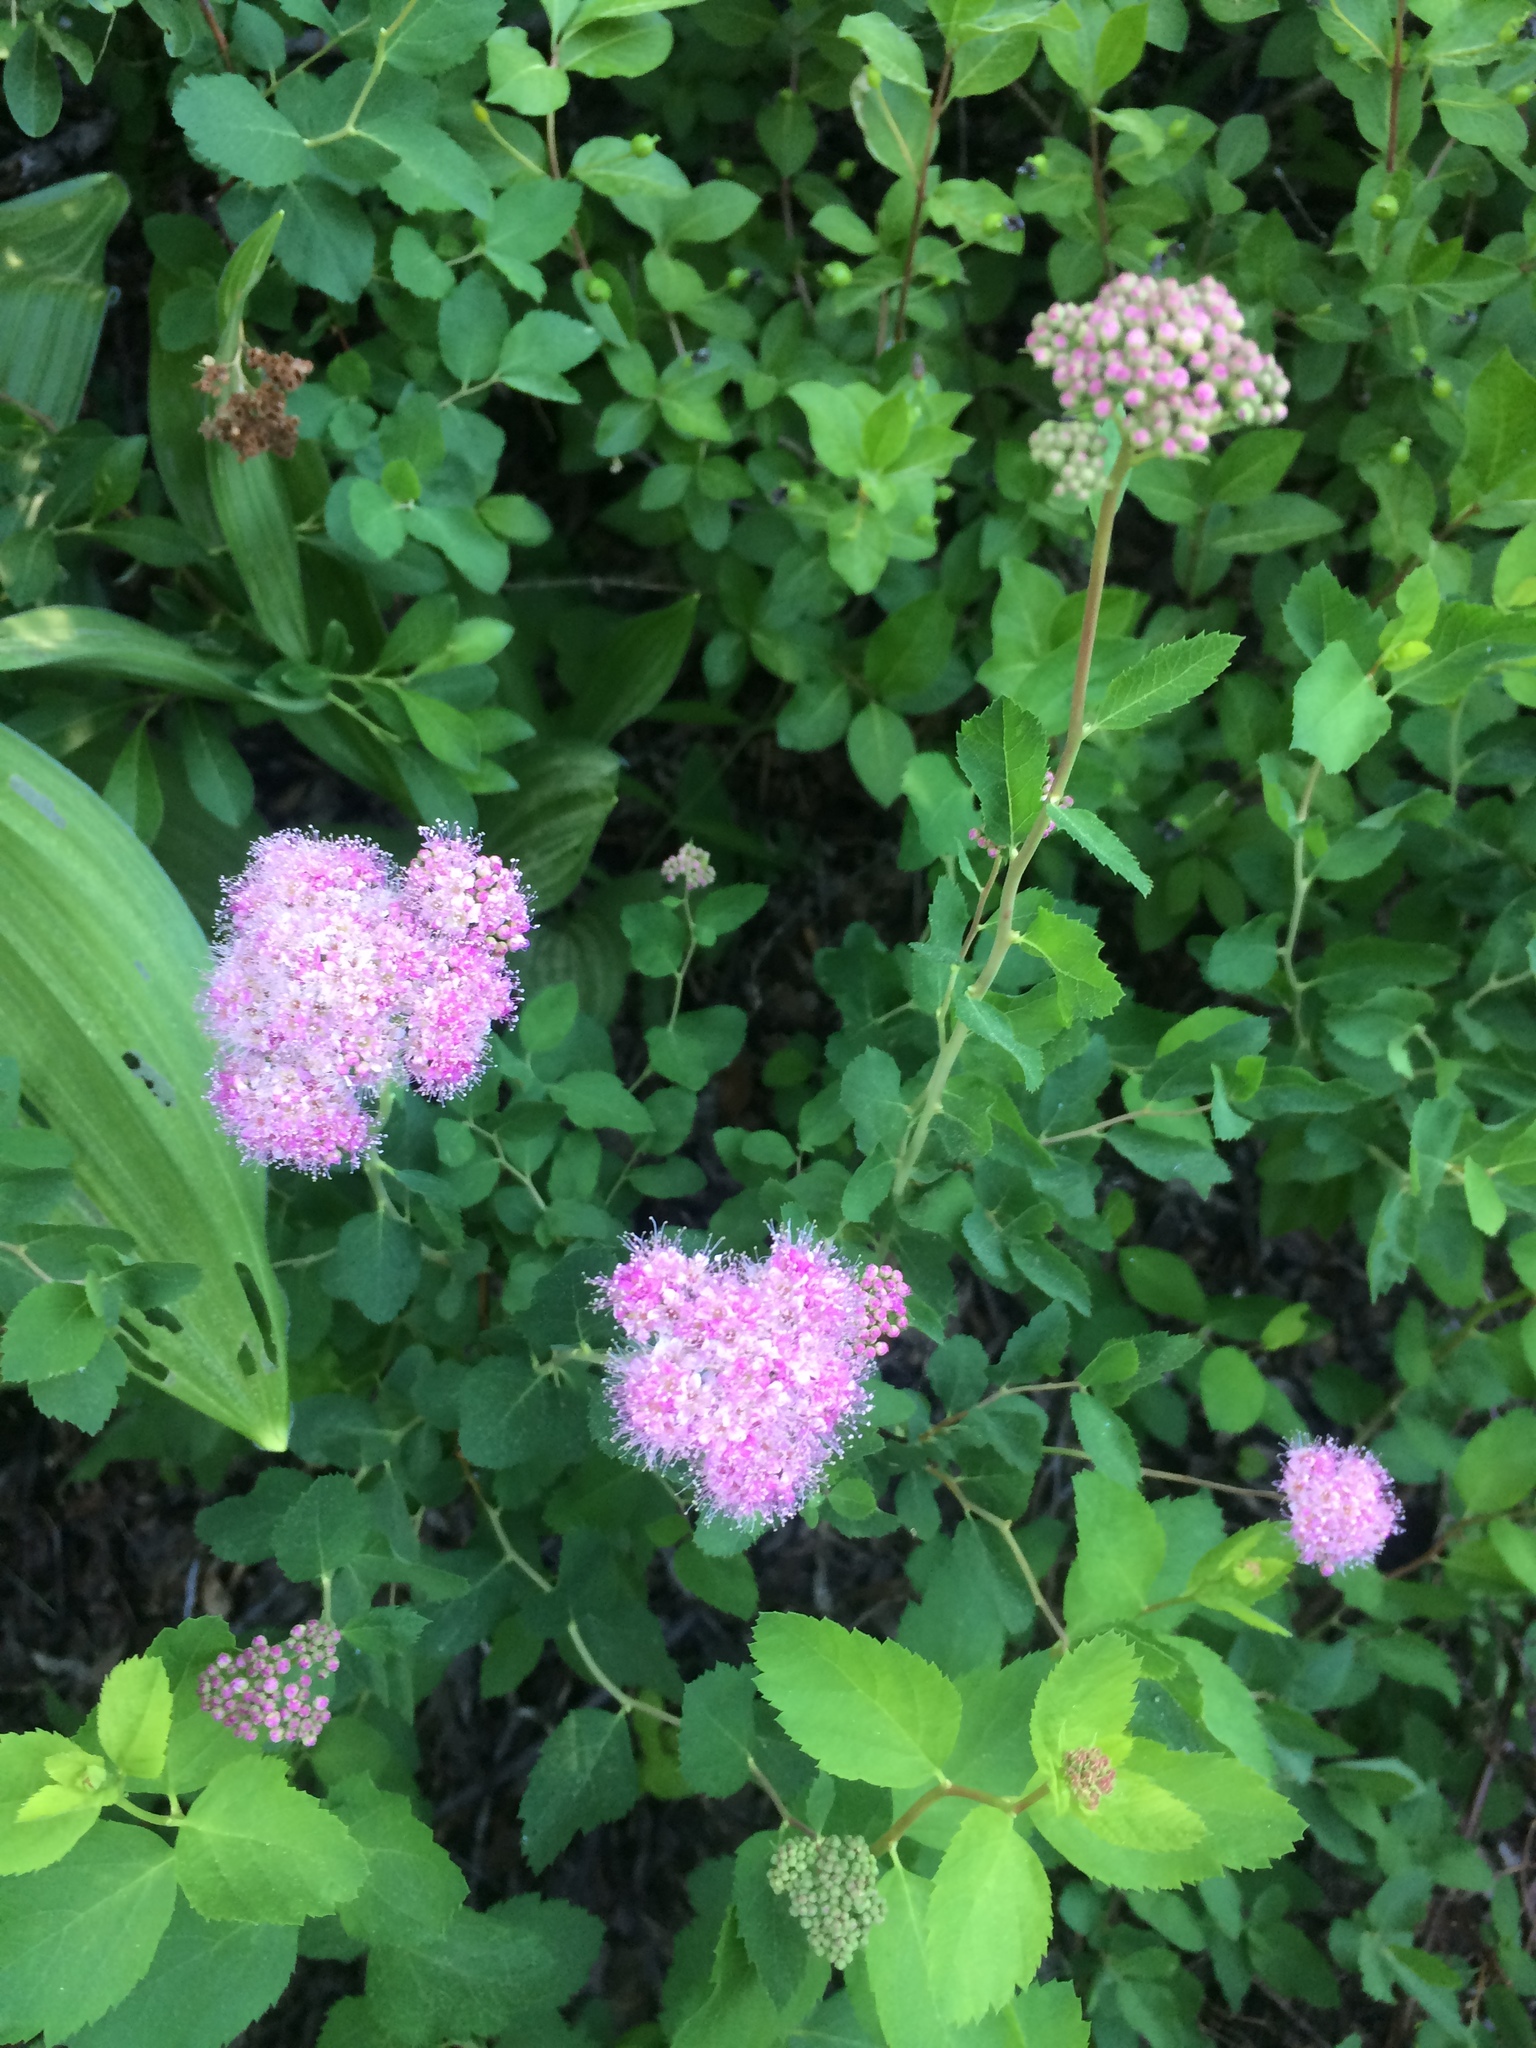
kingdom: Plantae
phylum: Tracheophyta
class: Magnoliopsida
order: Rosales
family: Rosaceae
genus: Spiraea
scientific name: Spiraea splendens
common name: Subalpine meadowsweet
